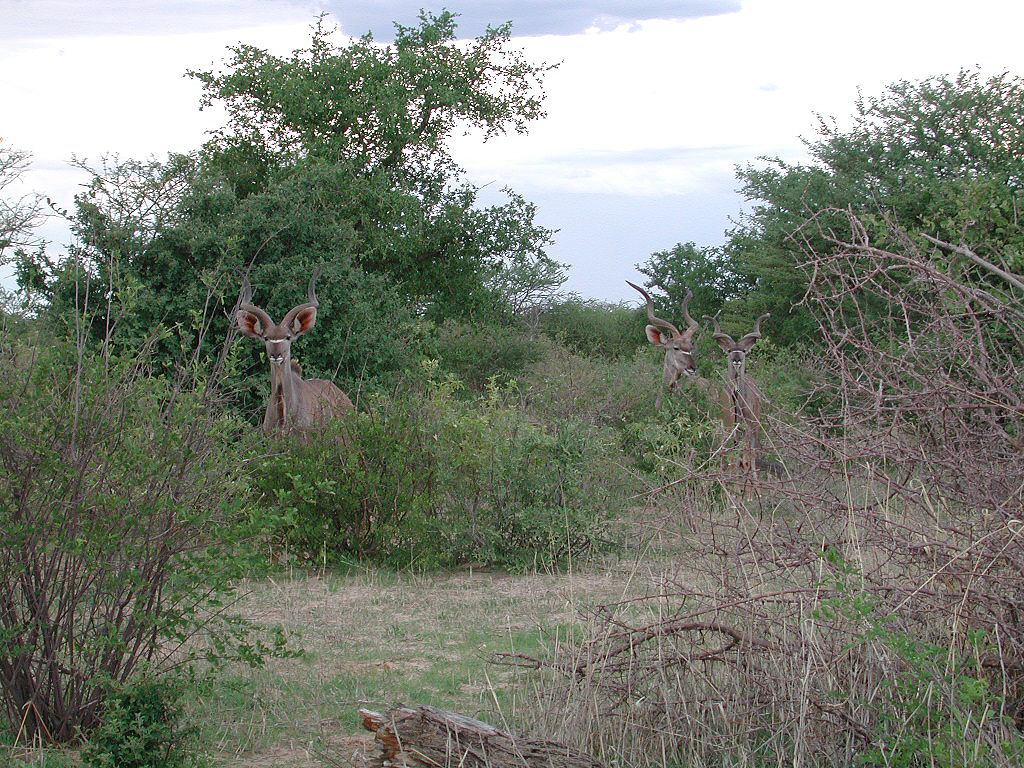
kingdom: Animalia
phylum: Chordata
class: Mammalia
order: Artiodactyla
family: Bovidae
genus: Tragelaphus
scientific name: Tragelaphus strepsiceros
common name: Greater kudu
